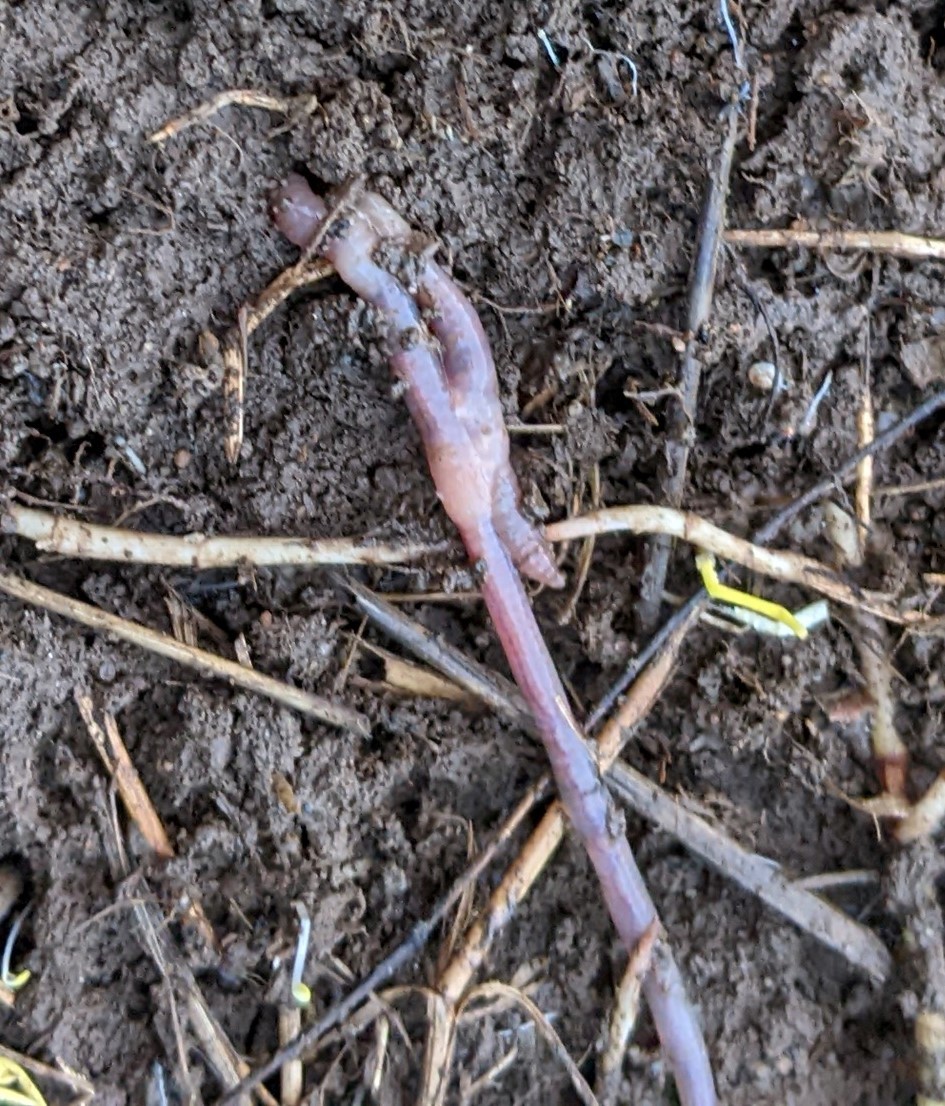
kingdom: Animalia
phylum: Annelida
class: Clitellata
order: Crassiclitellata
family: Lumbricidae
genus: Lumbricus
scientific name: Lumbricus terrestris
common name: Common earthworm
